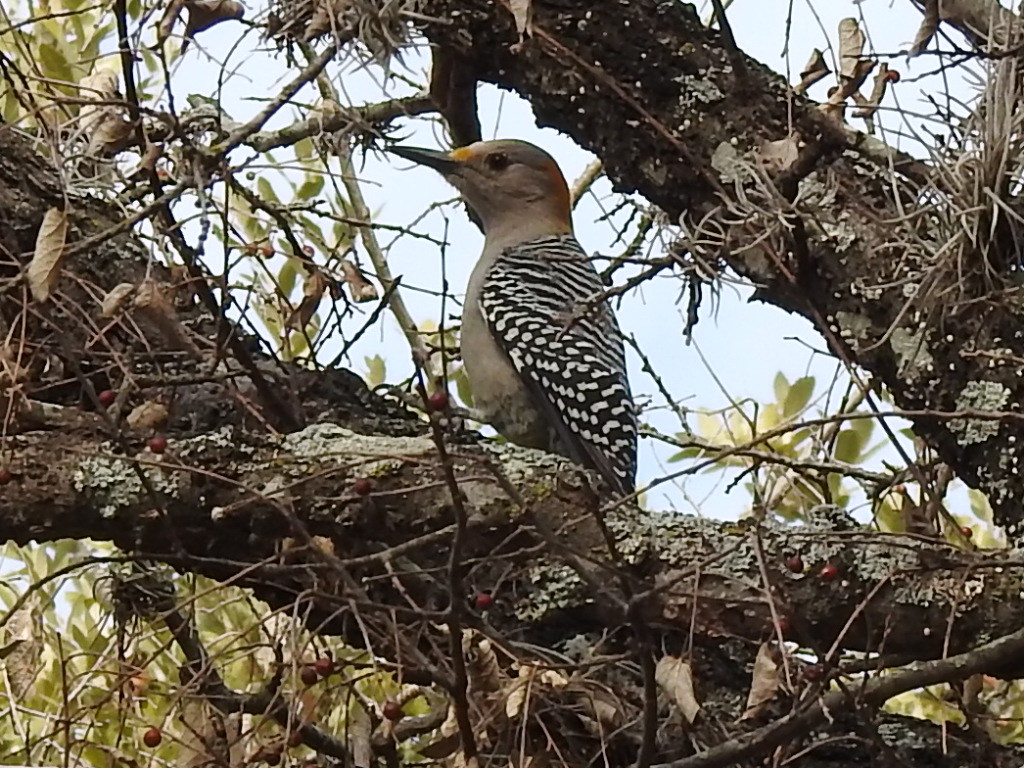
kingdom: Animalia
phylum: Chordata
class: Aves
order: Piciformes
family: Picidae
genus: Melanerpes
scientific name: Melanerpes aurifrons
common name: Golden-fronted woodpecker
